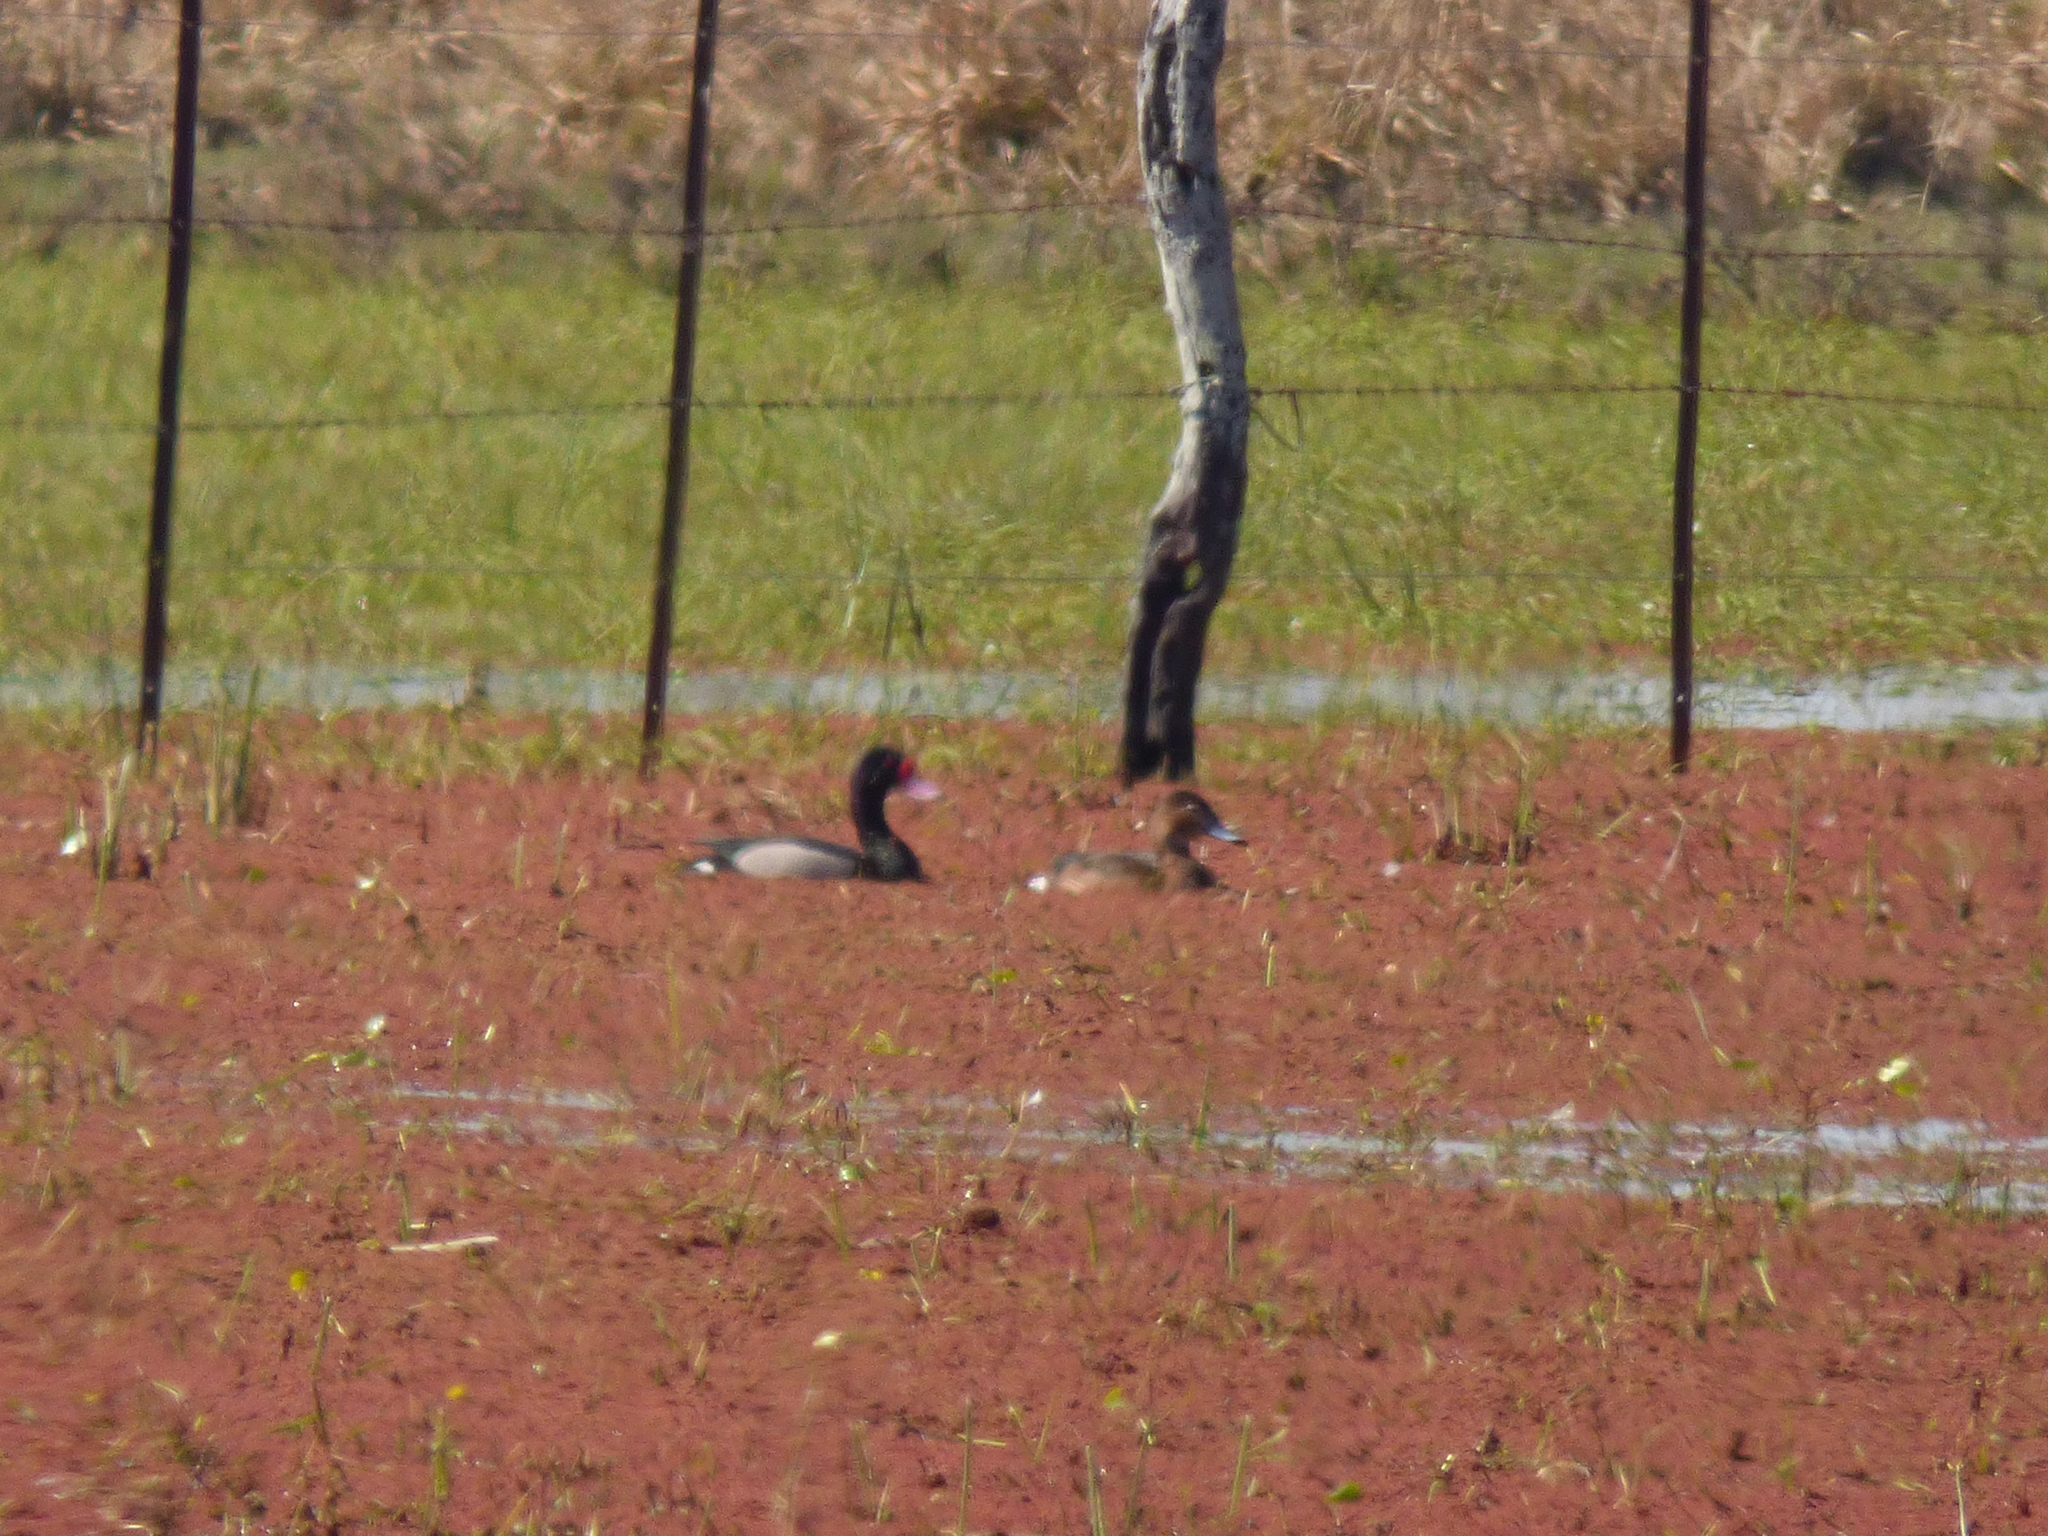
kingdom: Animalia
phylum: Chordata
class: Aves
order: Anseriformes
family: Anatidae
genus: Netta
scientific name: Netta peposaca
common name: Rosy-billed pochard
